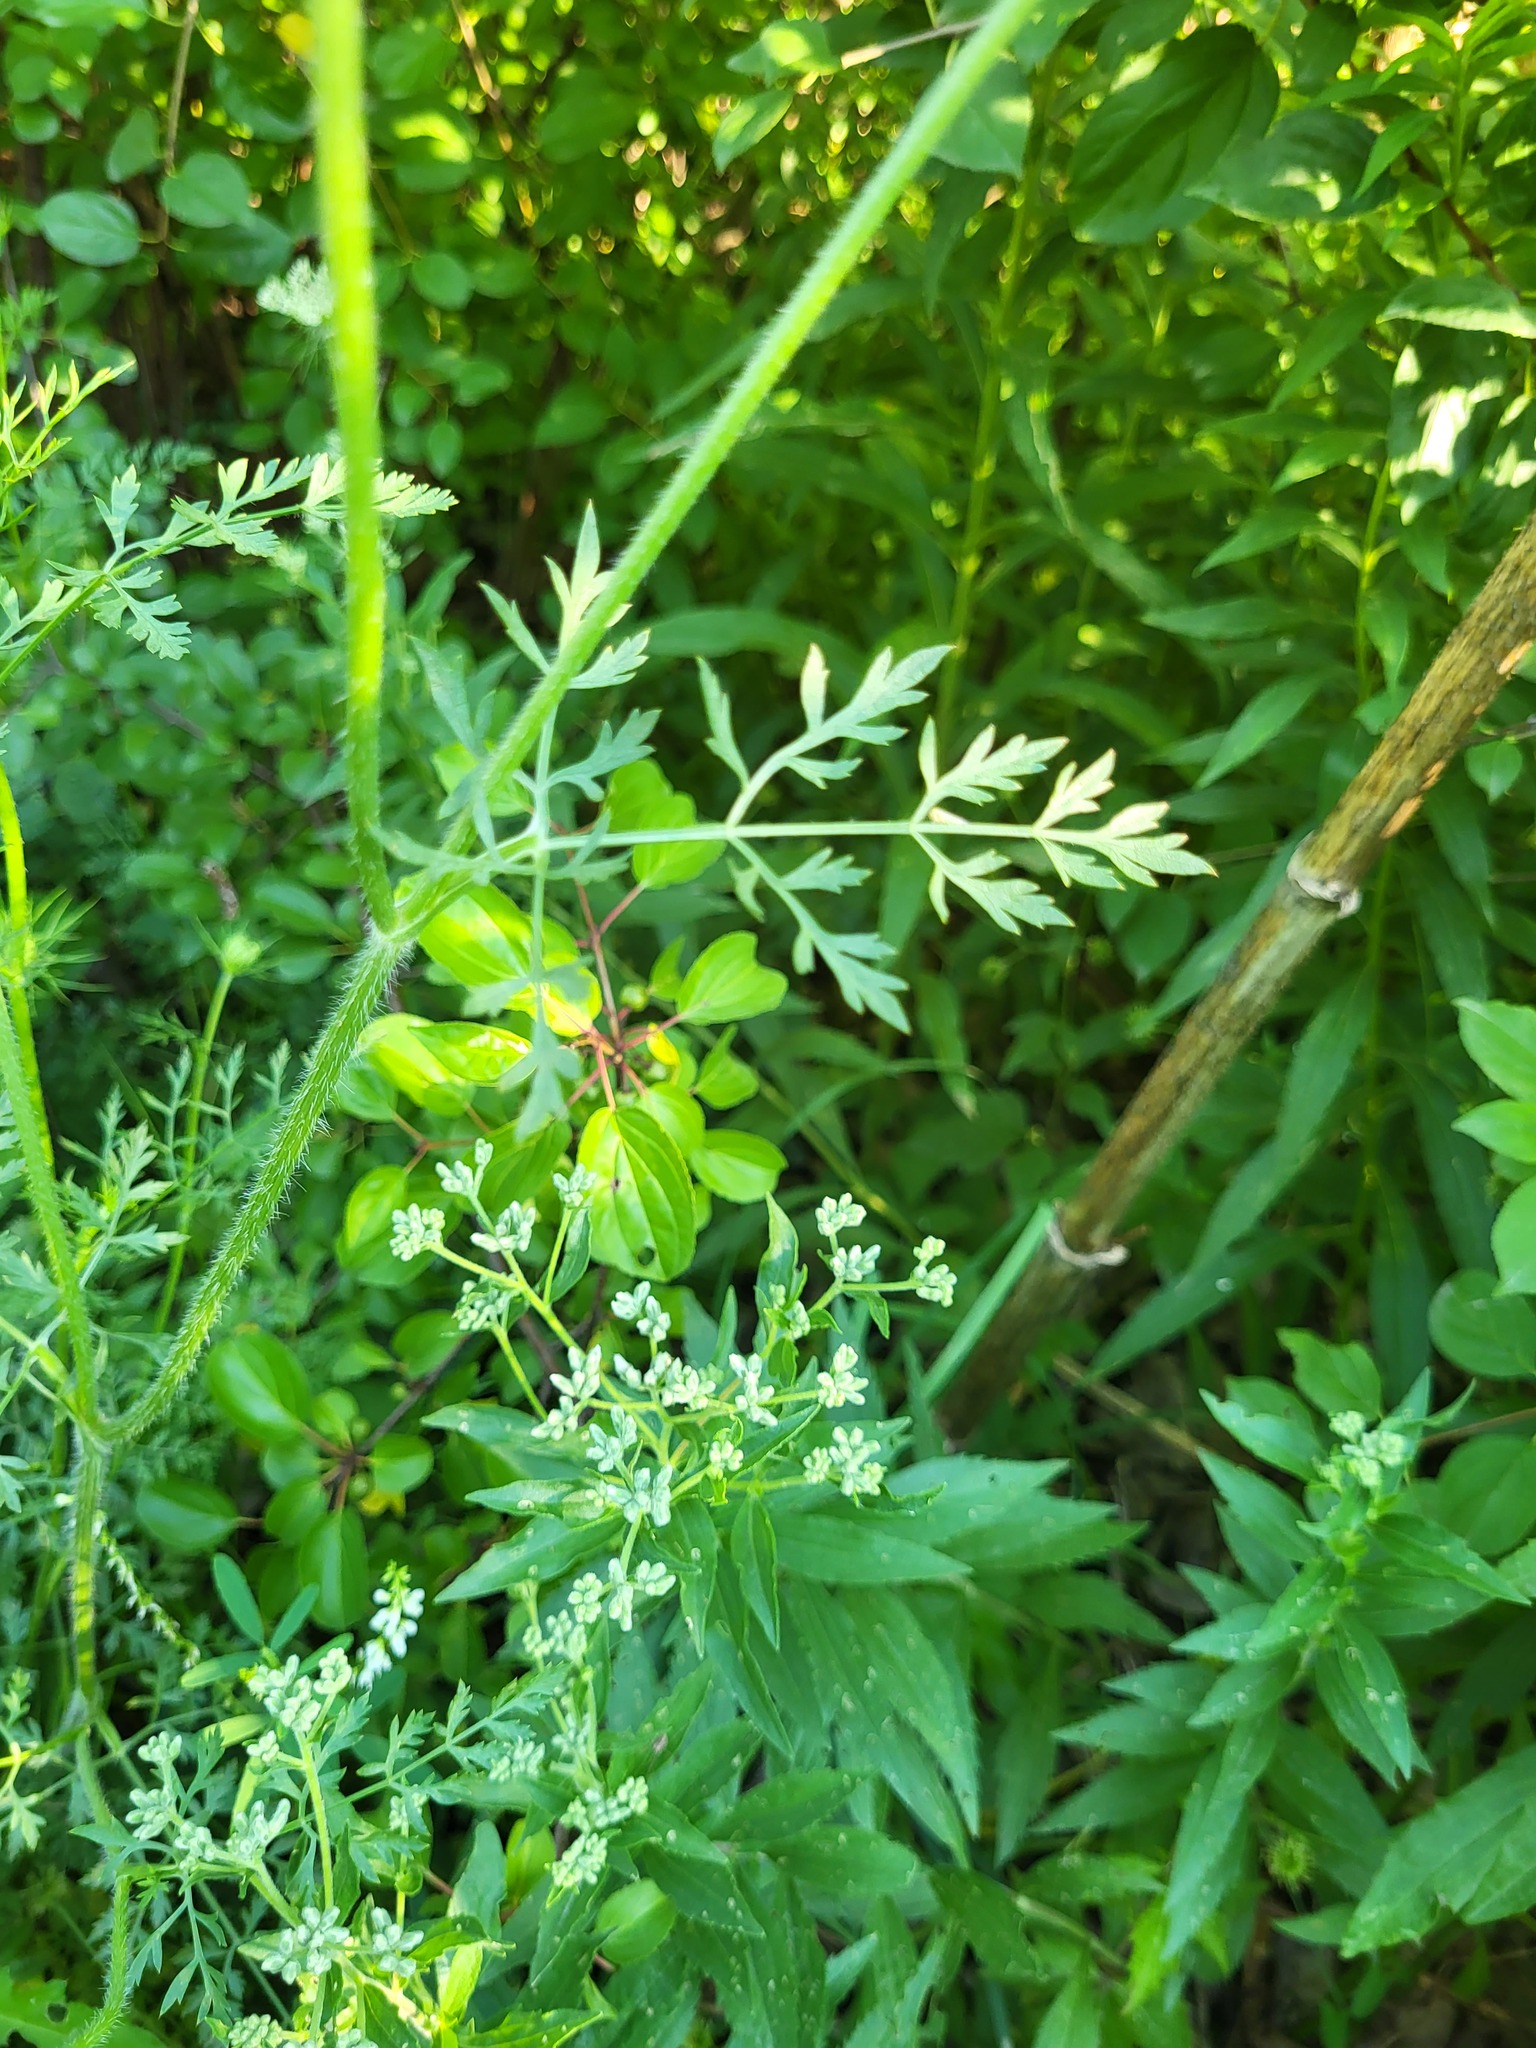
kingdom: Plantae
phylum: Tracheophyta
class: Magnoliopsida
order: Apiales
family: Apiaceae
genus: Daucus
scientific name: Daucus carota
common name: Wild carrot
